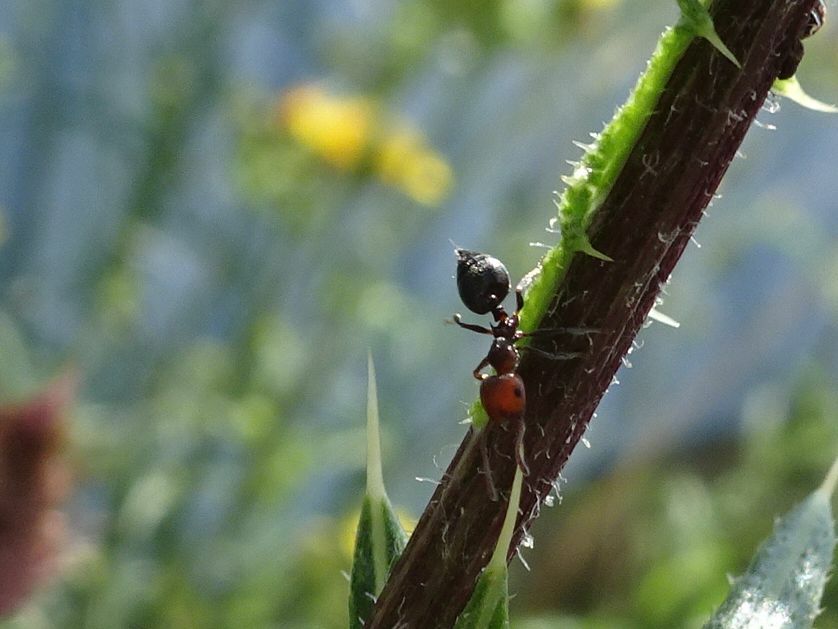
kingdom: Animalia
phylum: Arthropoda
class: Insecta
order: Hymenoptera
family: Formicidae
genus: Crematogaster
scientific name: Crematogaster scutellaris
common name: Fourmi du liège
